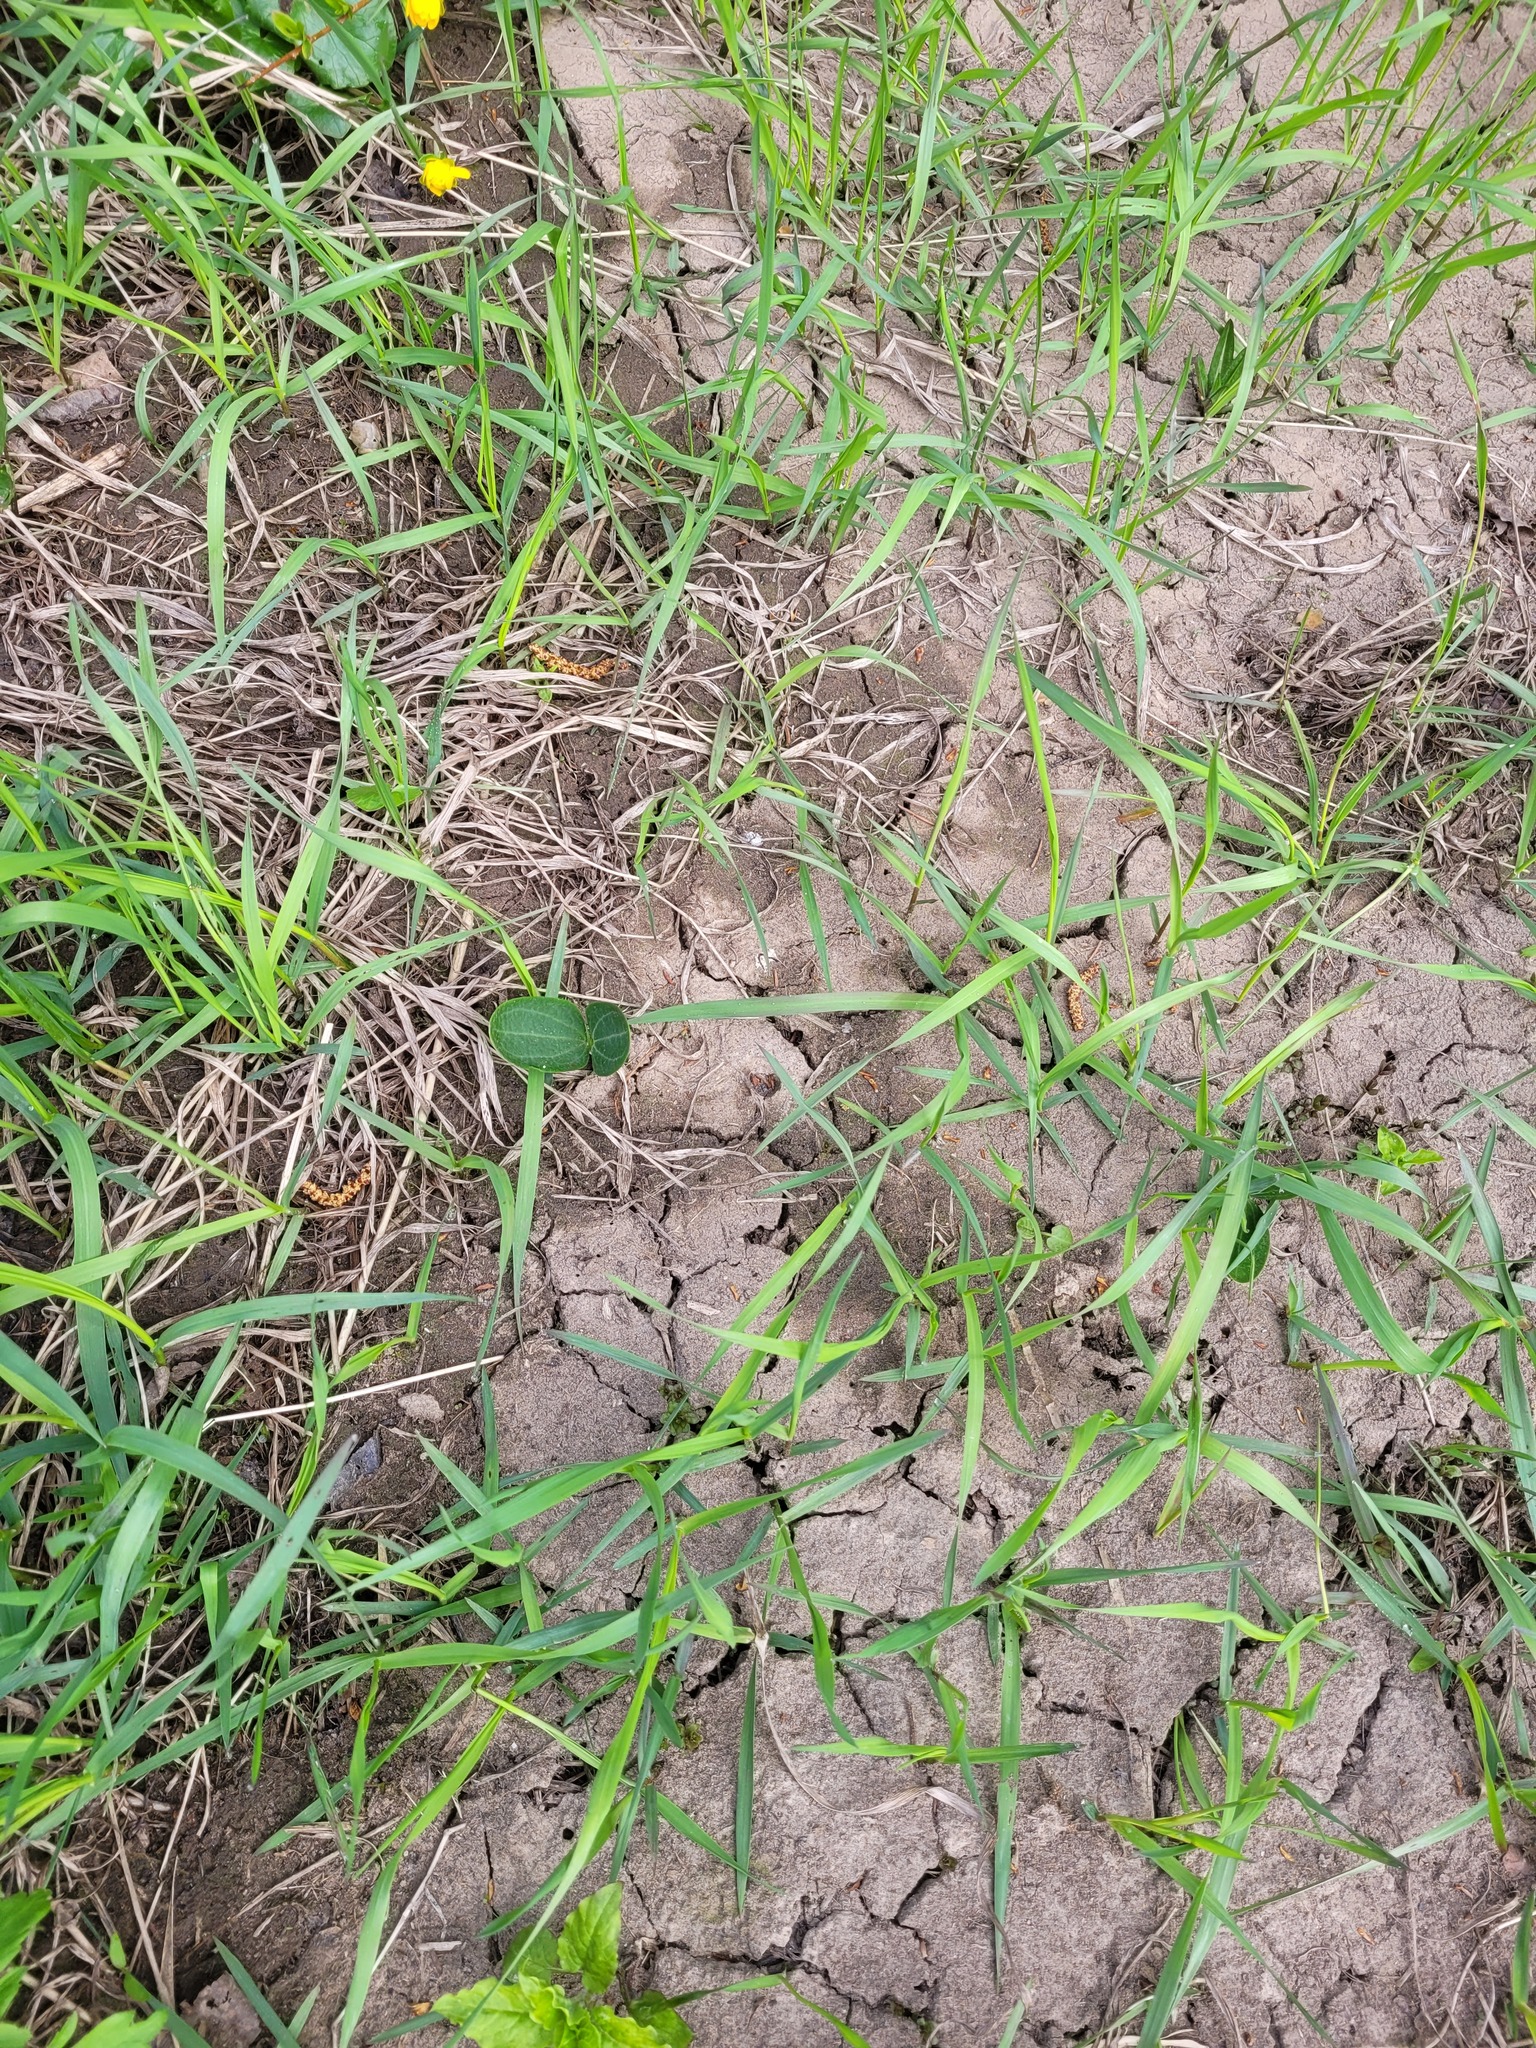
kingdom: Plantae
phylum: Tracheophyta
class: Magnoliopsida
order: Cucurbitales
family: Cucurbitaceae
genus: Echinocystis
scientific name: Echinocystis lobata
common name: Wild cucumber
